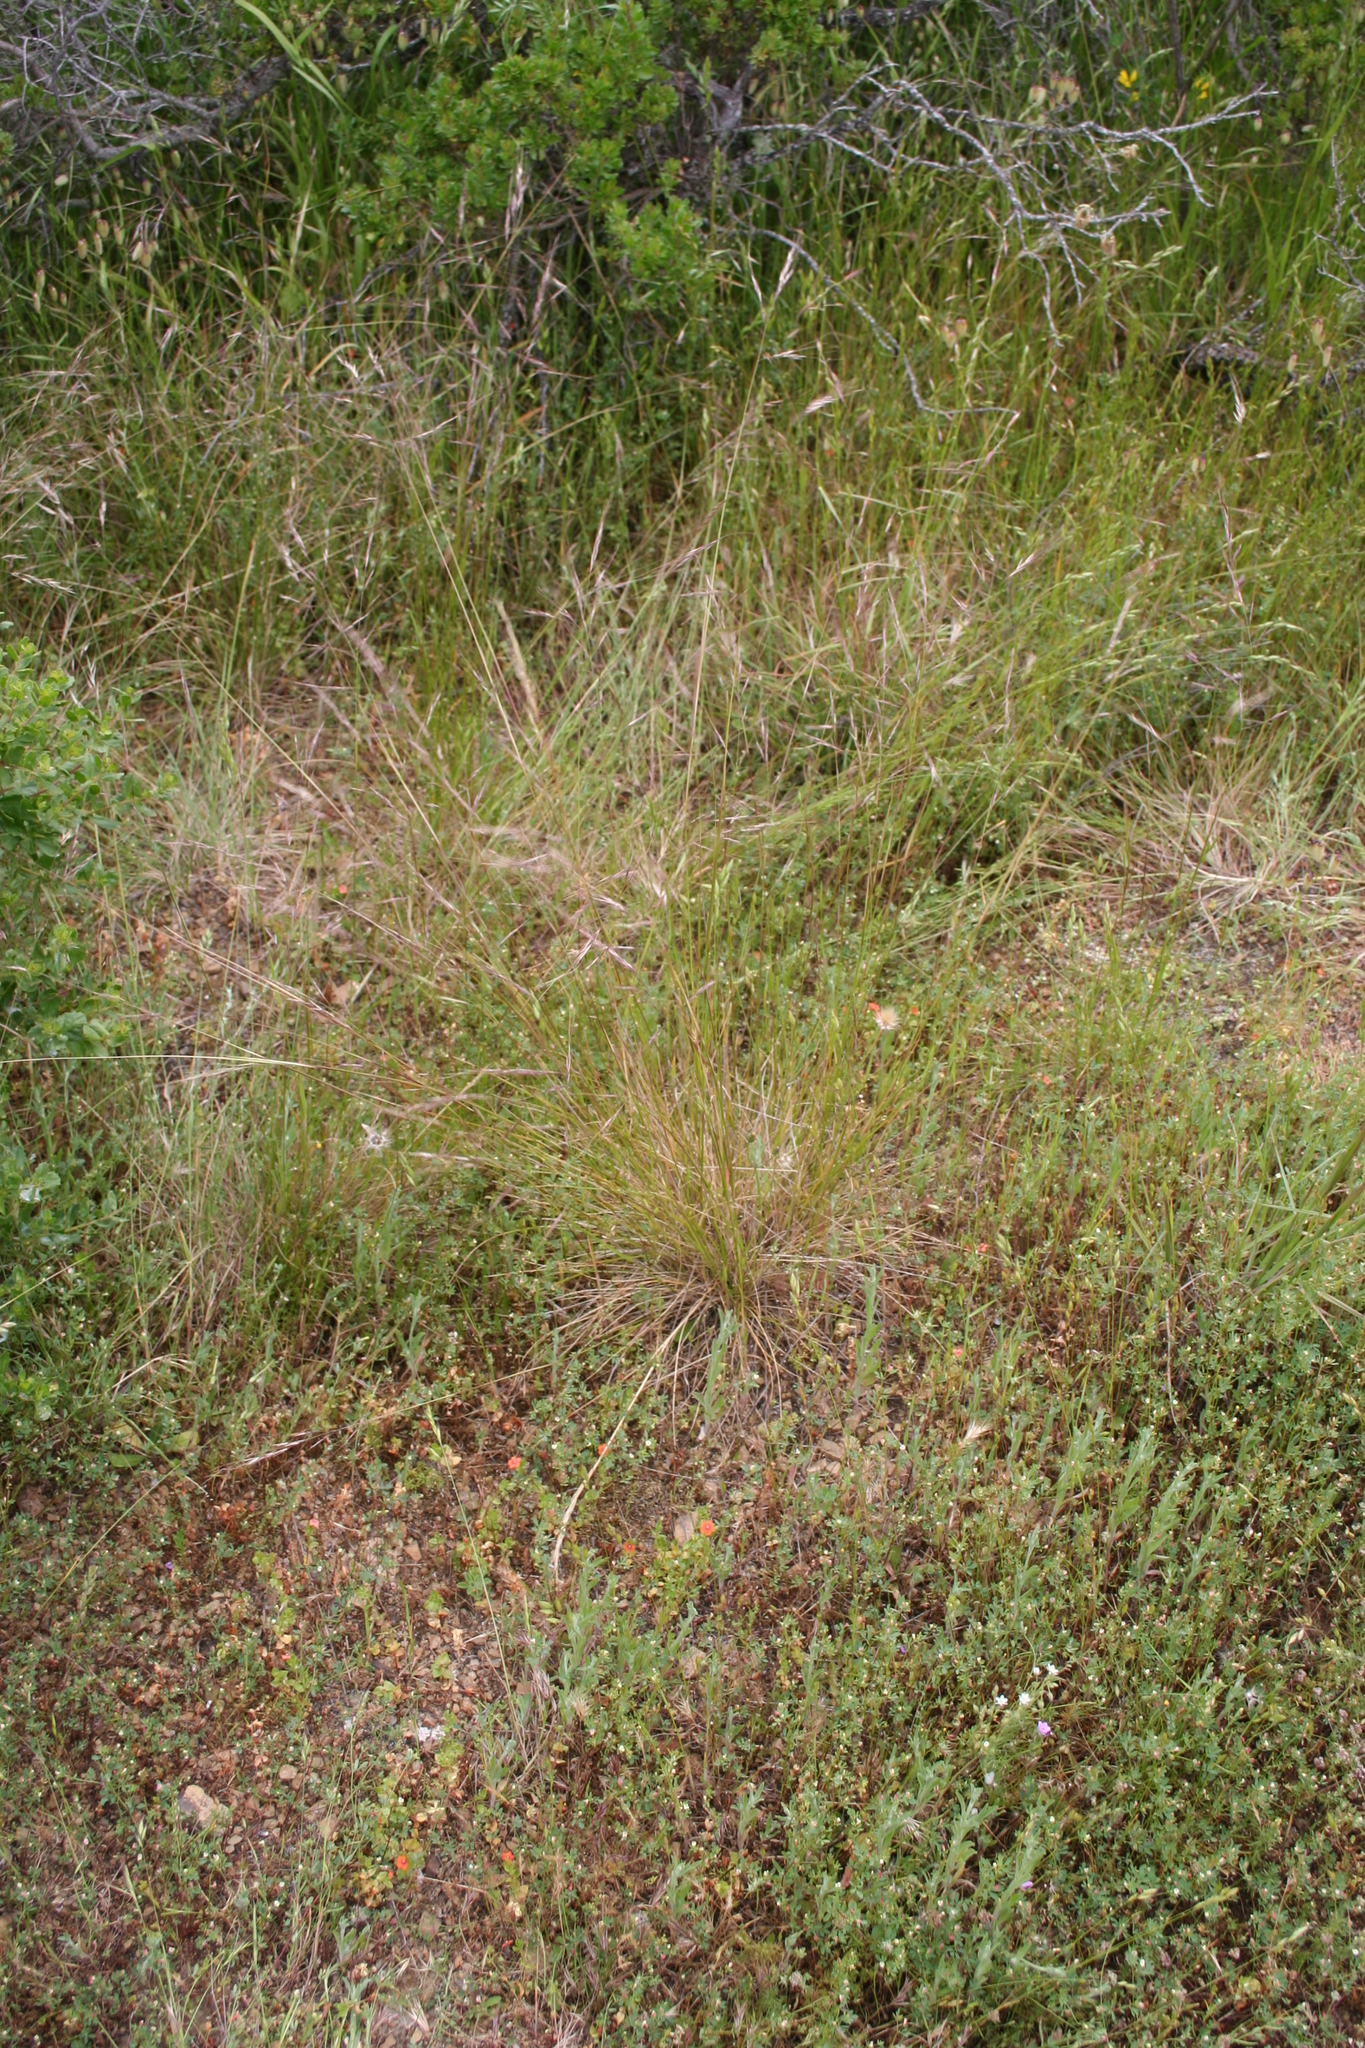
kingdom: Plantae
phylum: Tracheophyta
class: Liliopsida
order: Poales
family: Poaceae
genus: Nassella
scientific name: Nassella lepida
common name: Foothill needlegrass
